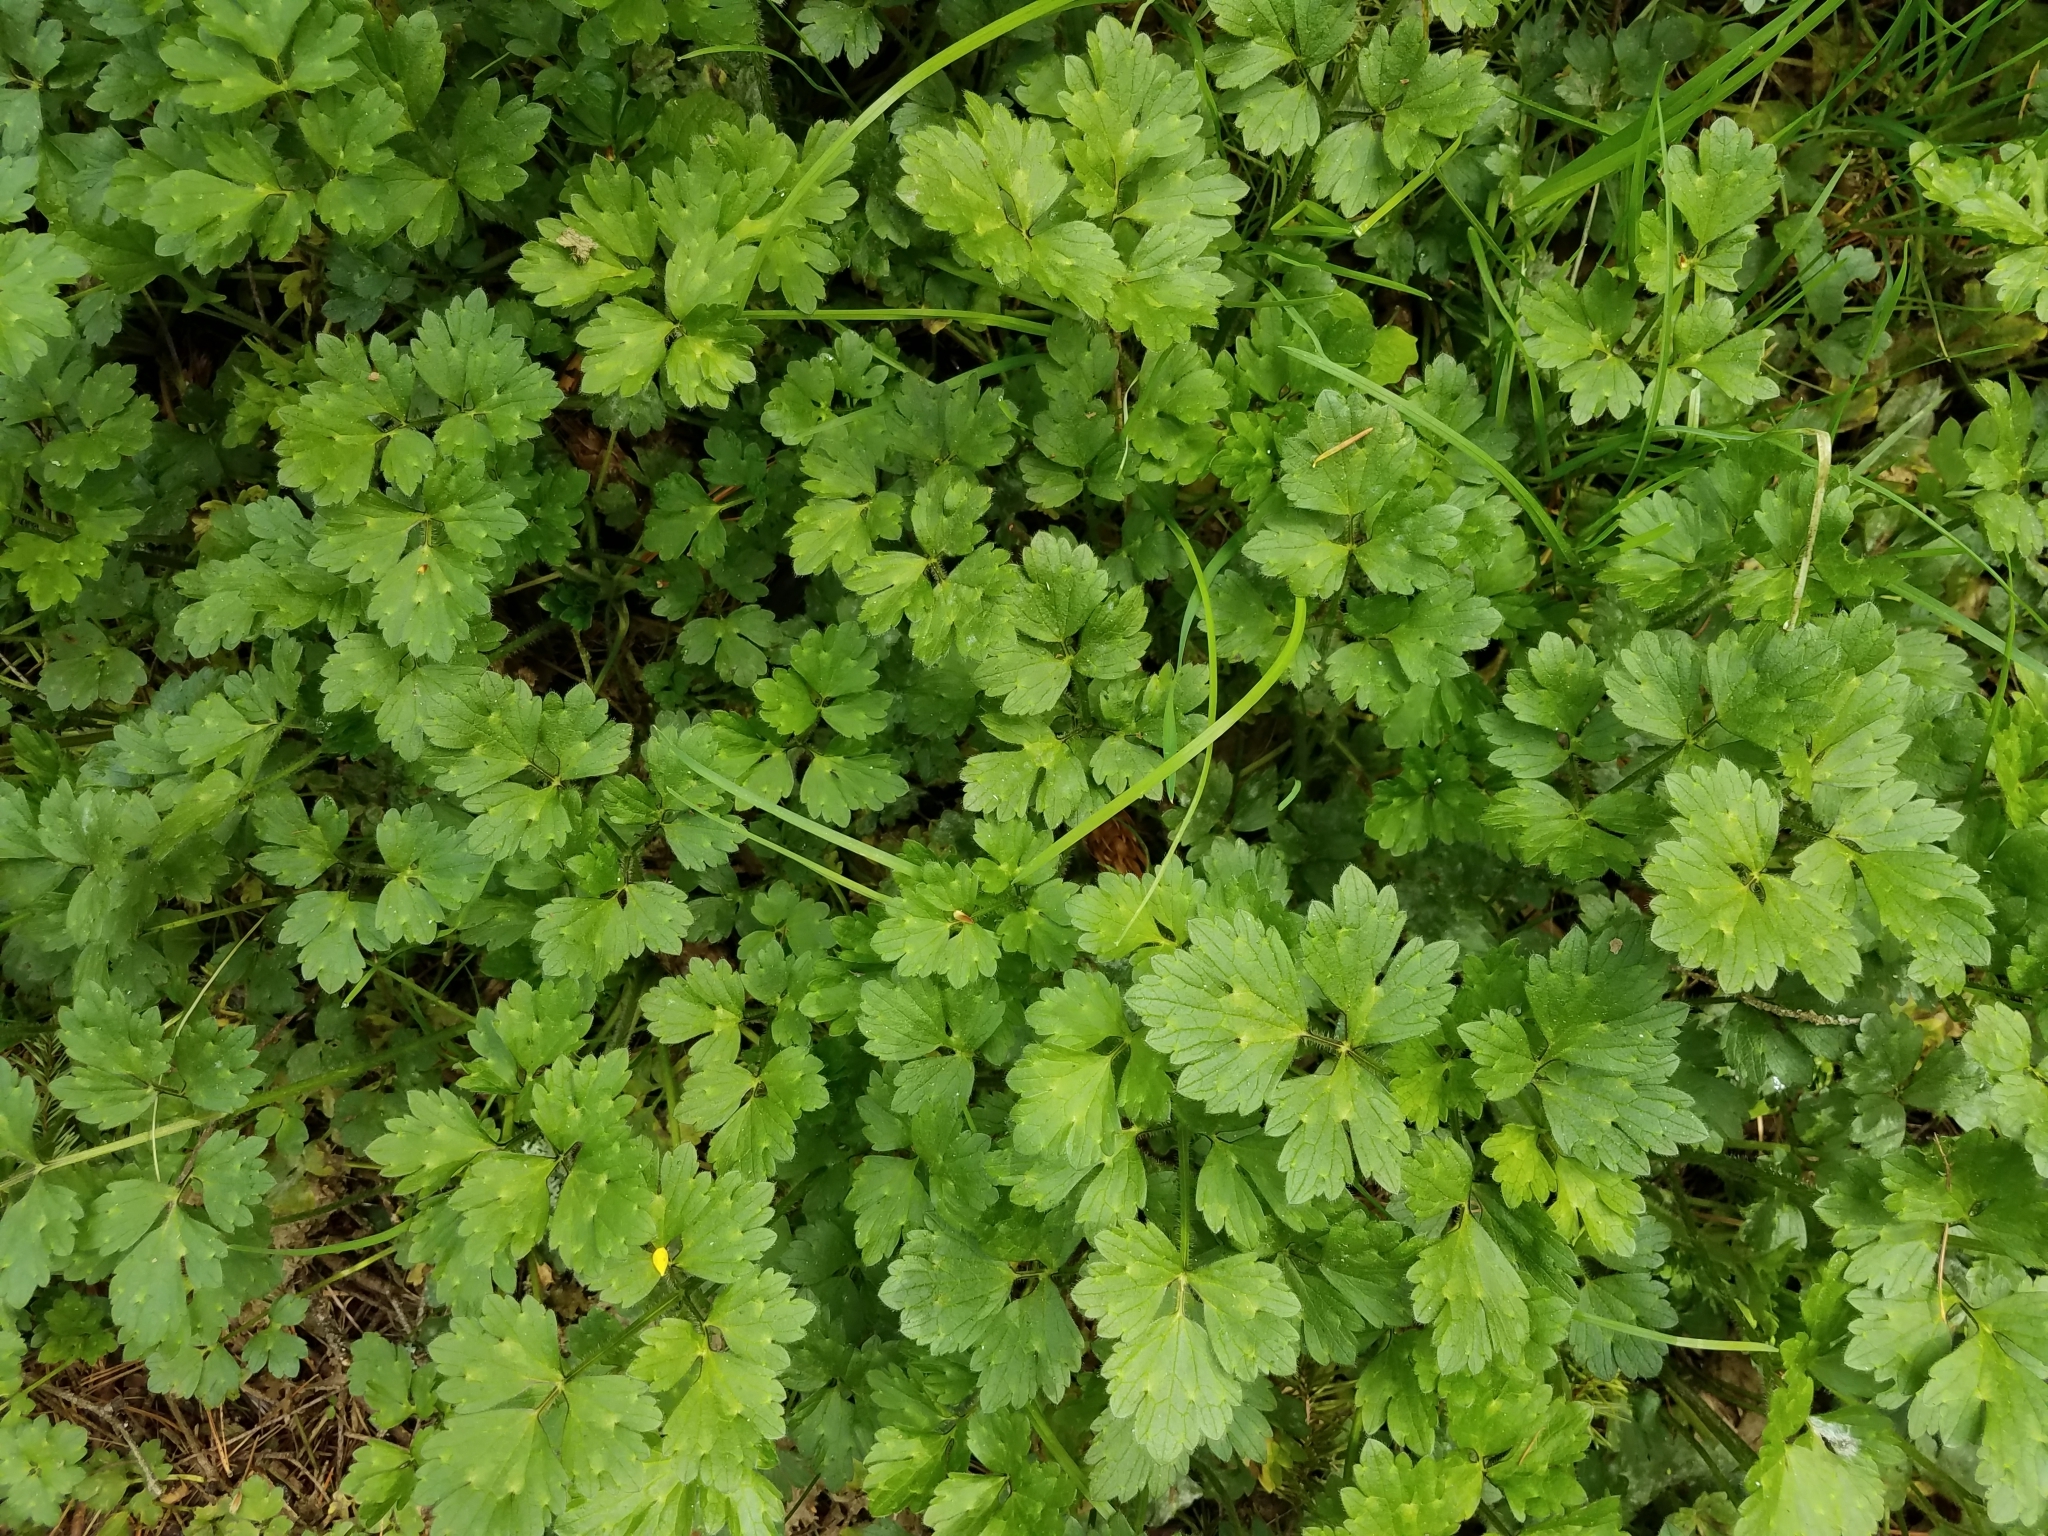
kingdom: Plantae
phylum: Tracheophyta
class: Magnoliopsida
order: Ranunculales
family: Ranunculaceae
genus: Ranunculus
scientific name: Ranunculus repens
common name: Creeping buttercup
